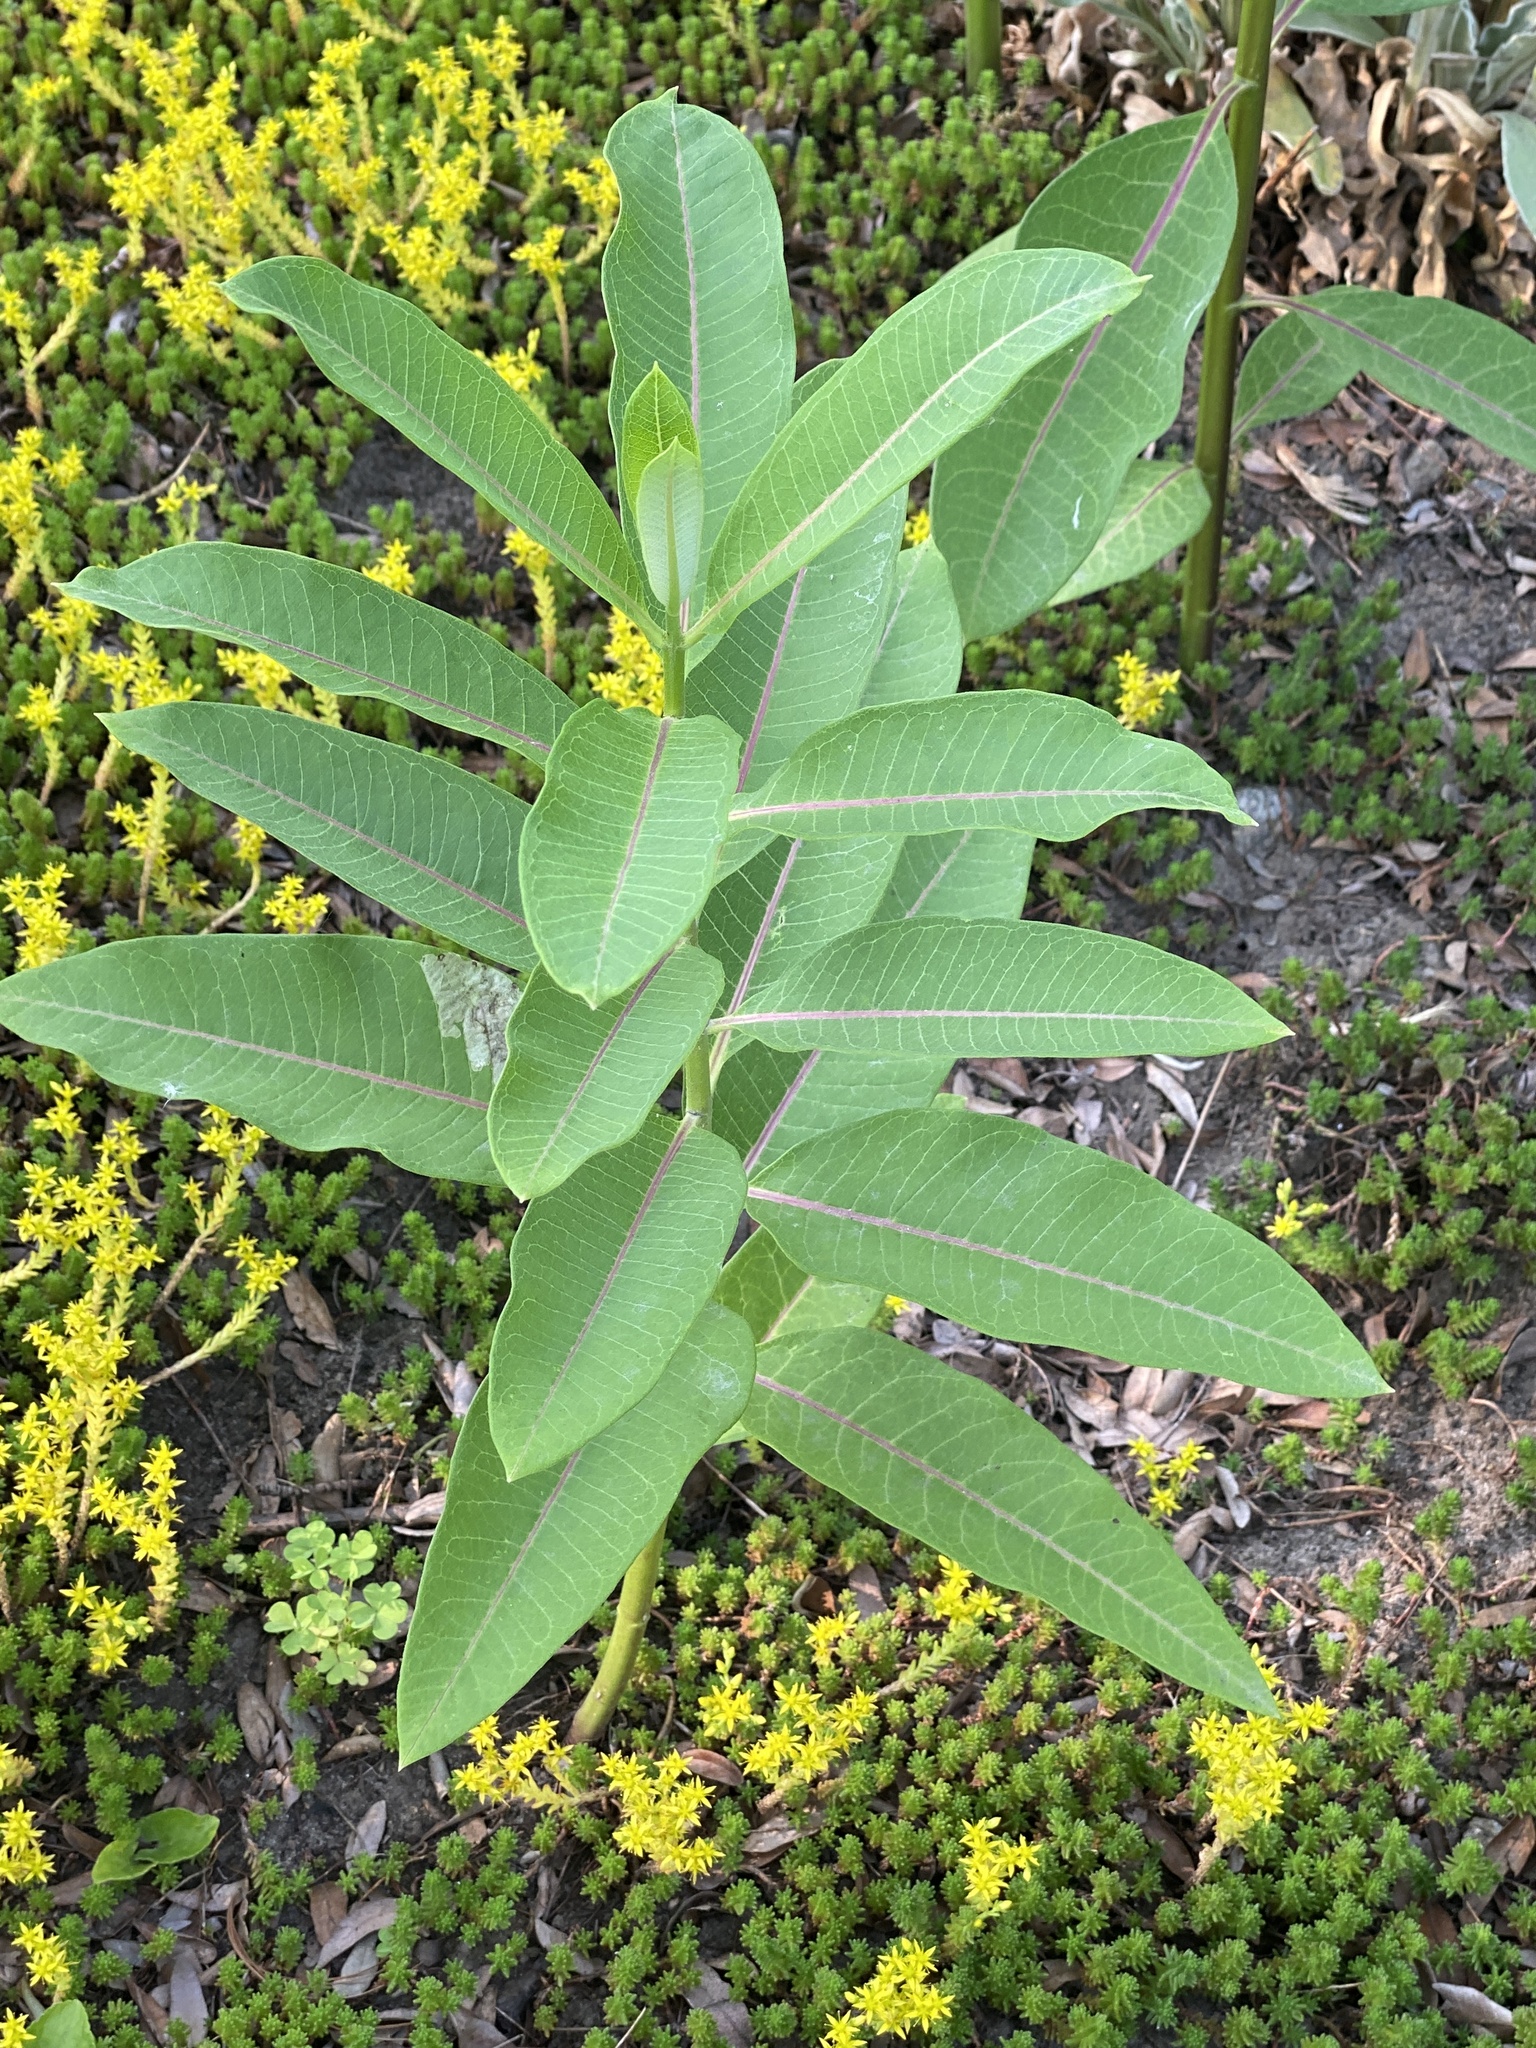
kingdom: Plantae
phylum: Tracheophyta
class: Magnoliopsida
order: Gentianales
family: Apocynaceae
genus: Asclepias
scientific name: Asclepias syriaca
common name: Common milkweed
